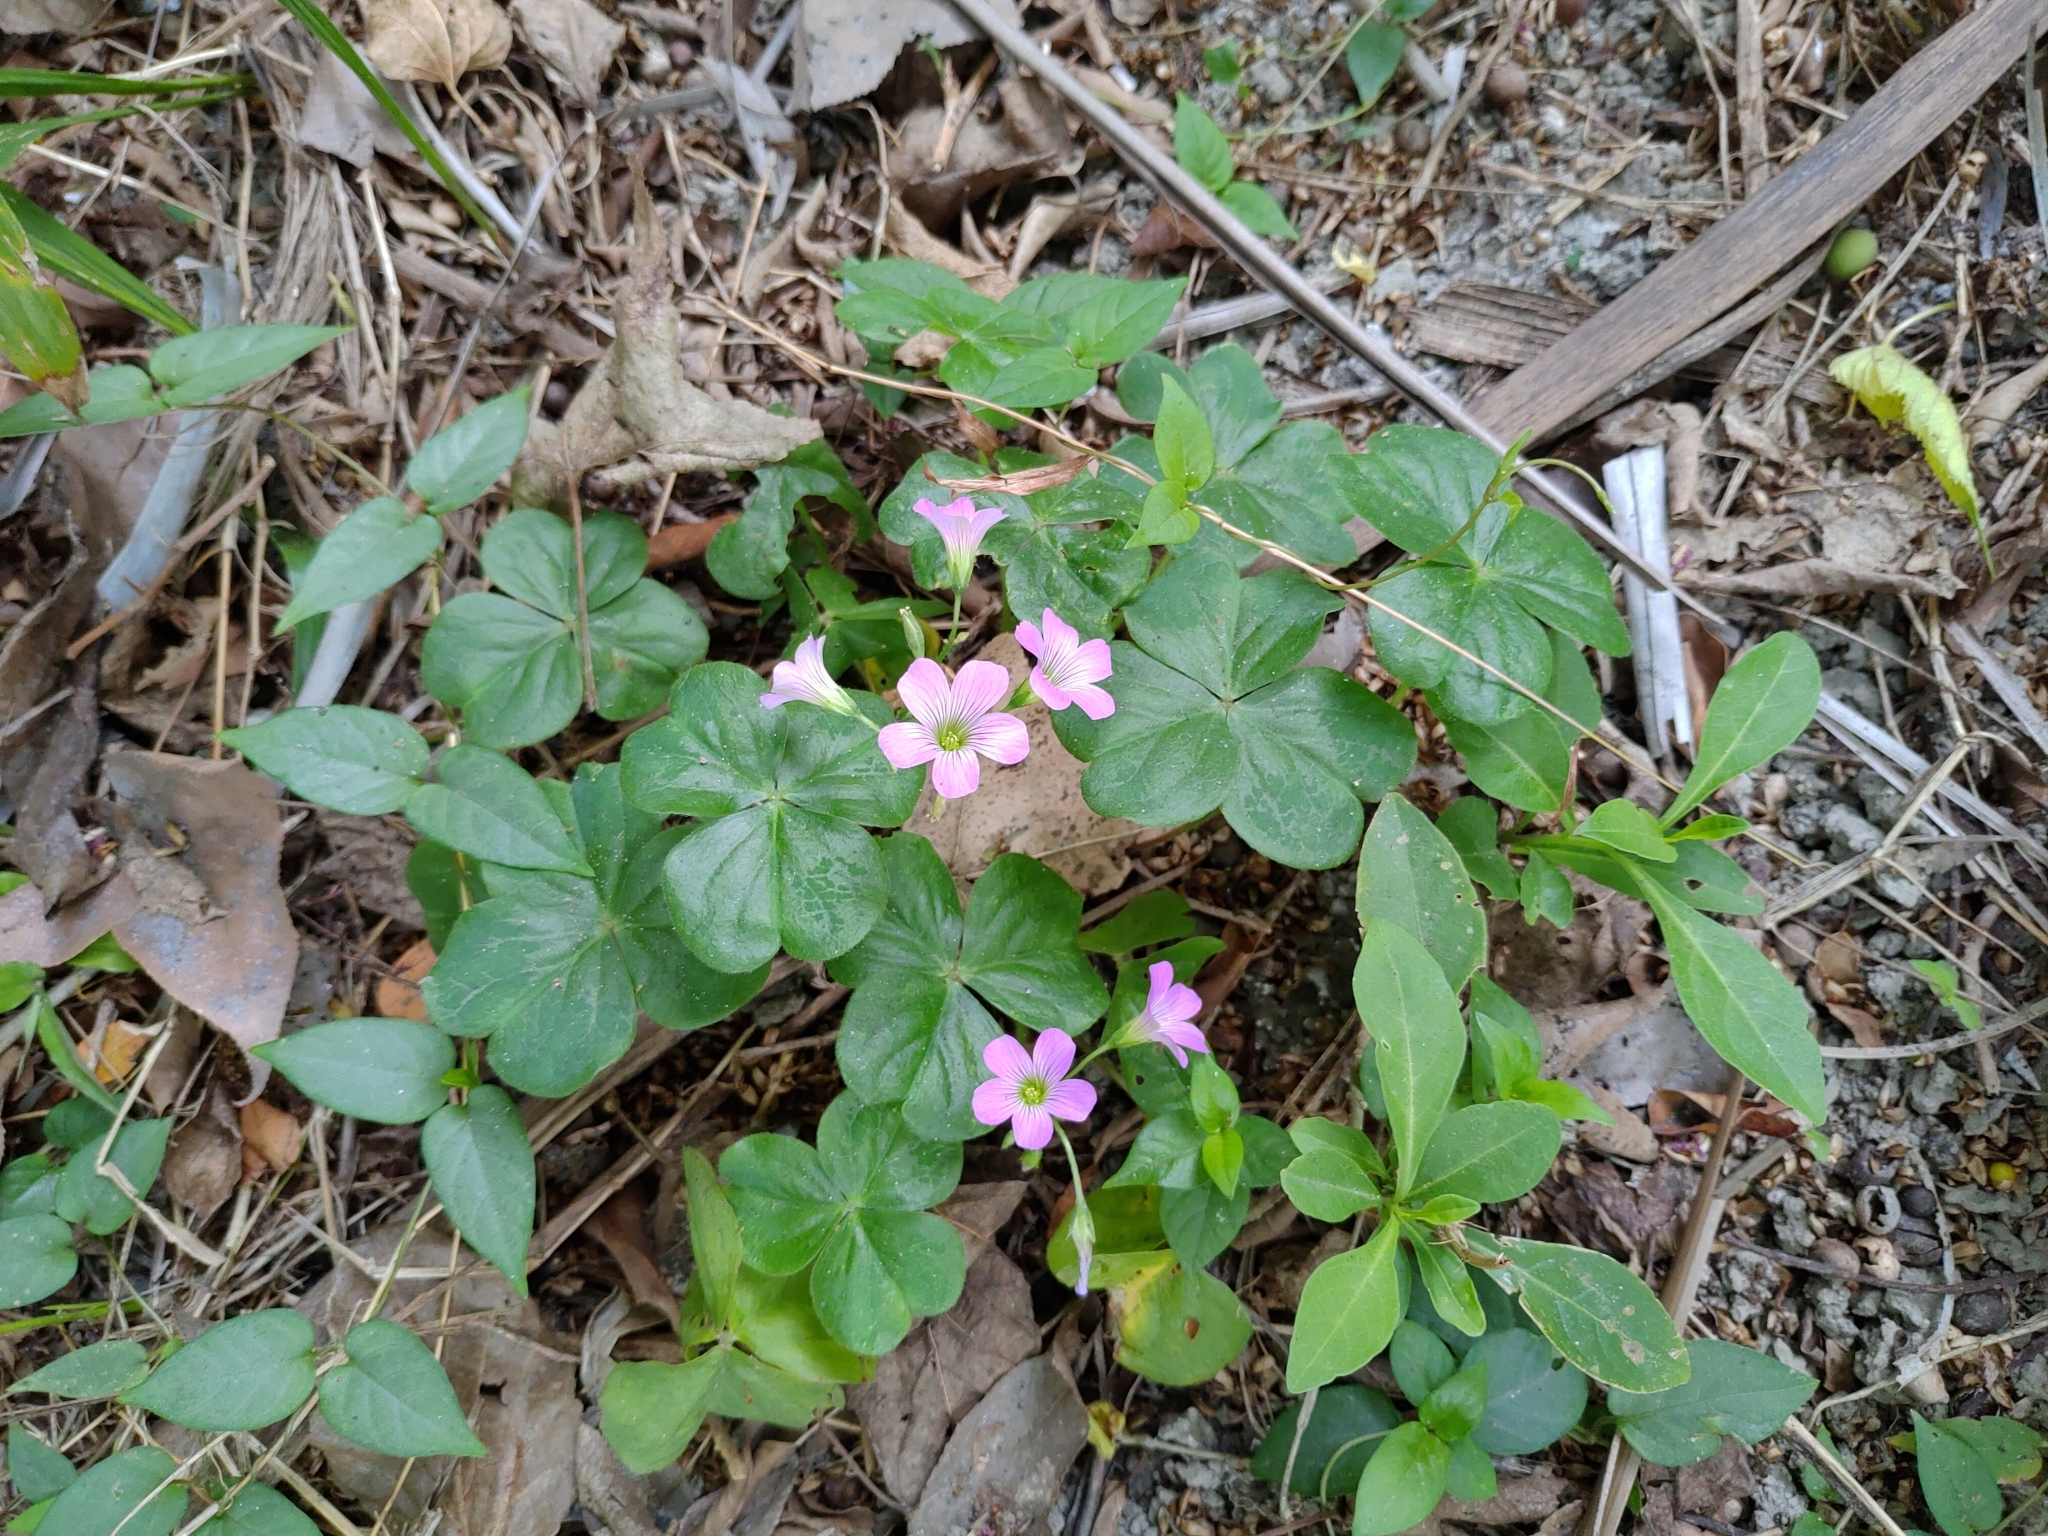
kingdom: Plantae
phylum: Tracheophyta
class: Magnoliopsida
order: Oxalidales
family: Oxalidaceae
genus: Oxalis
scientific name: Oxalis debilis
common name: Large-flowered pink-sorrel
